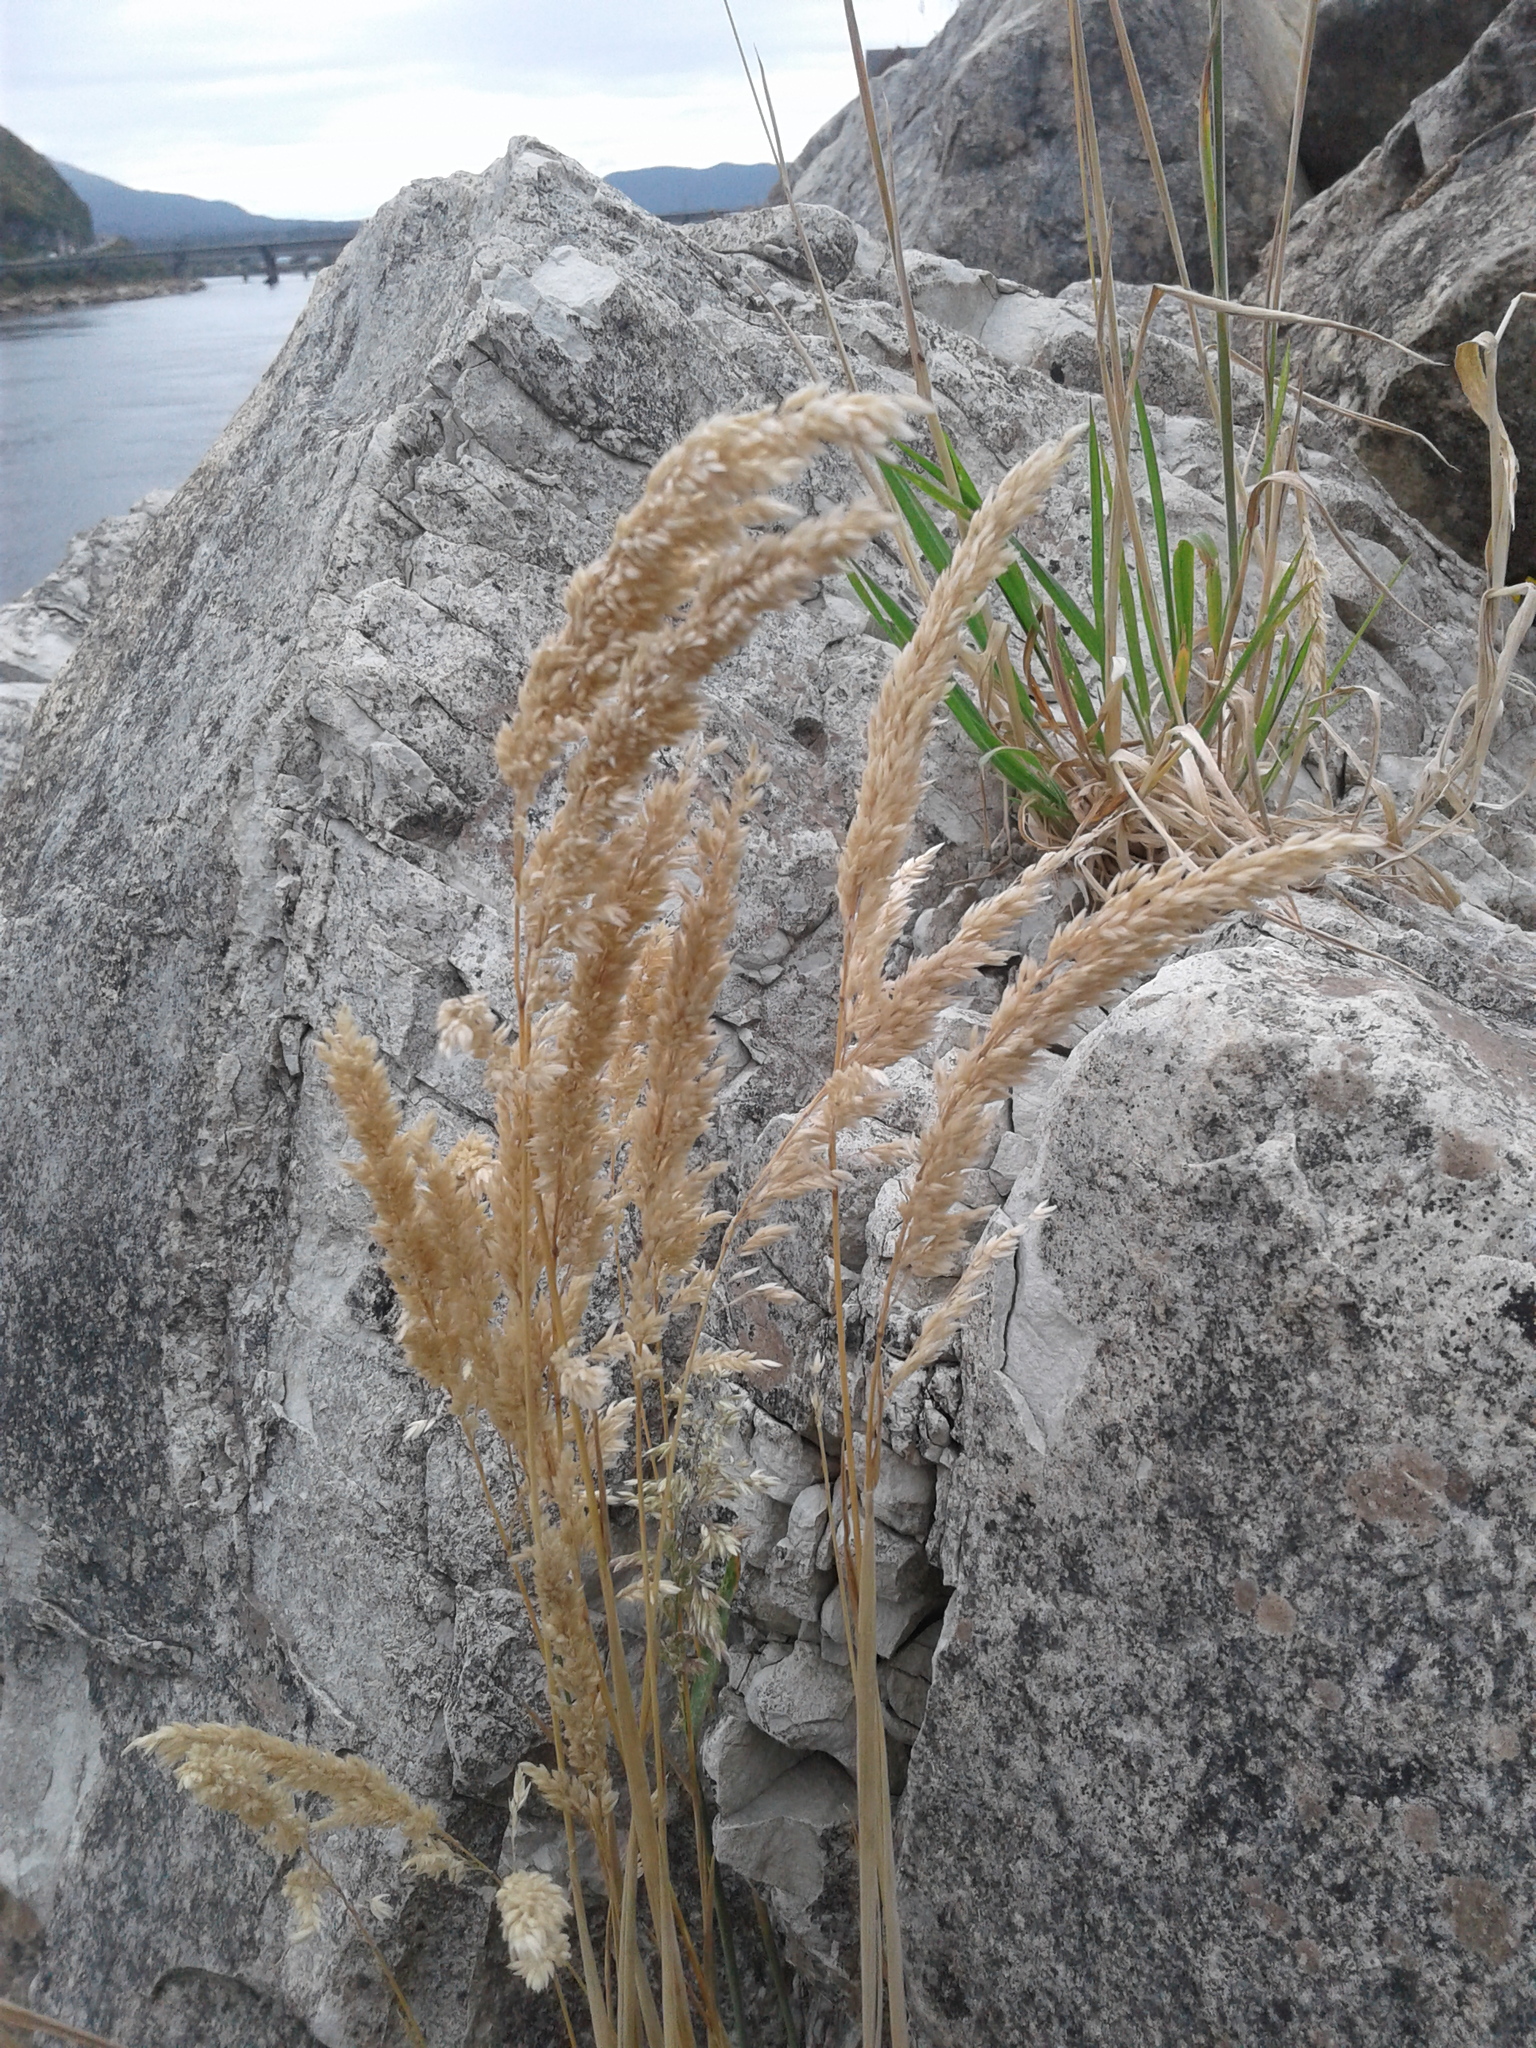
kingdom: Plantae
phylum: Tracheophyta
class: Liliopsida
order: Poales
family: Poaceae
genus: Holcus
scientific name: Holcus lanatus
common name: Yorkshire-fog
